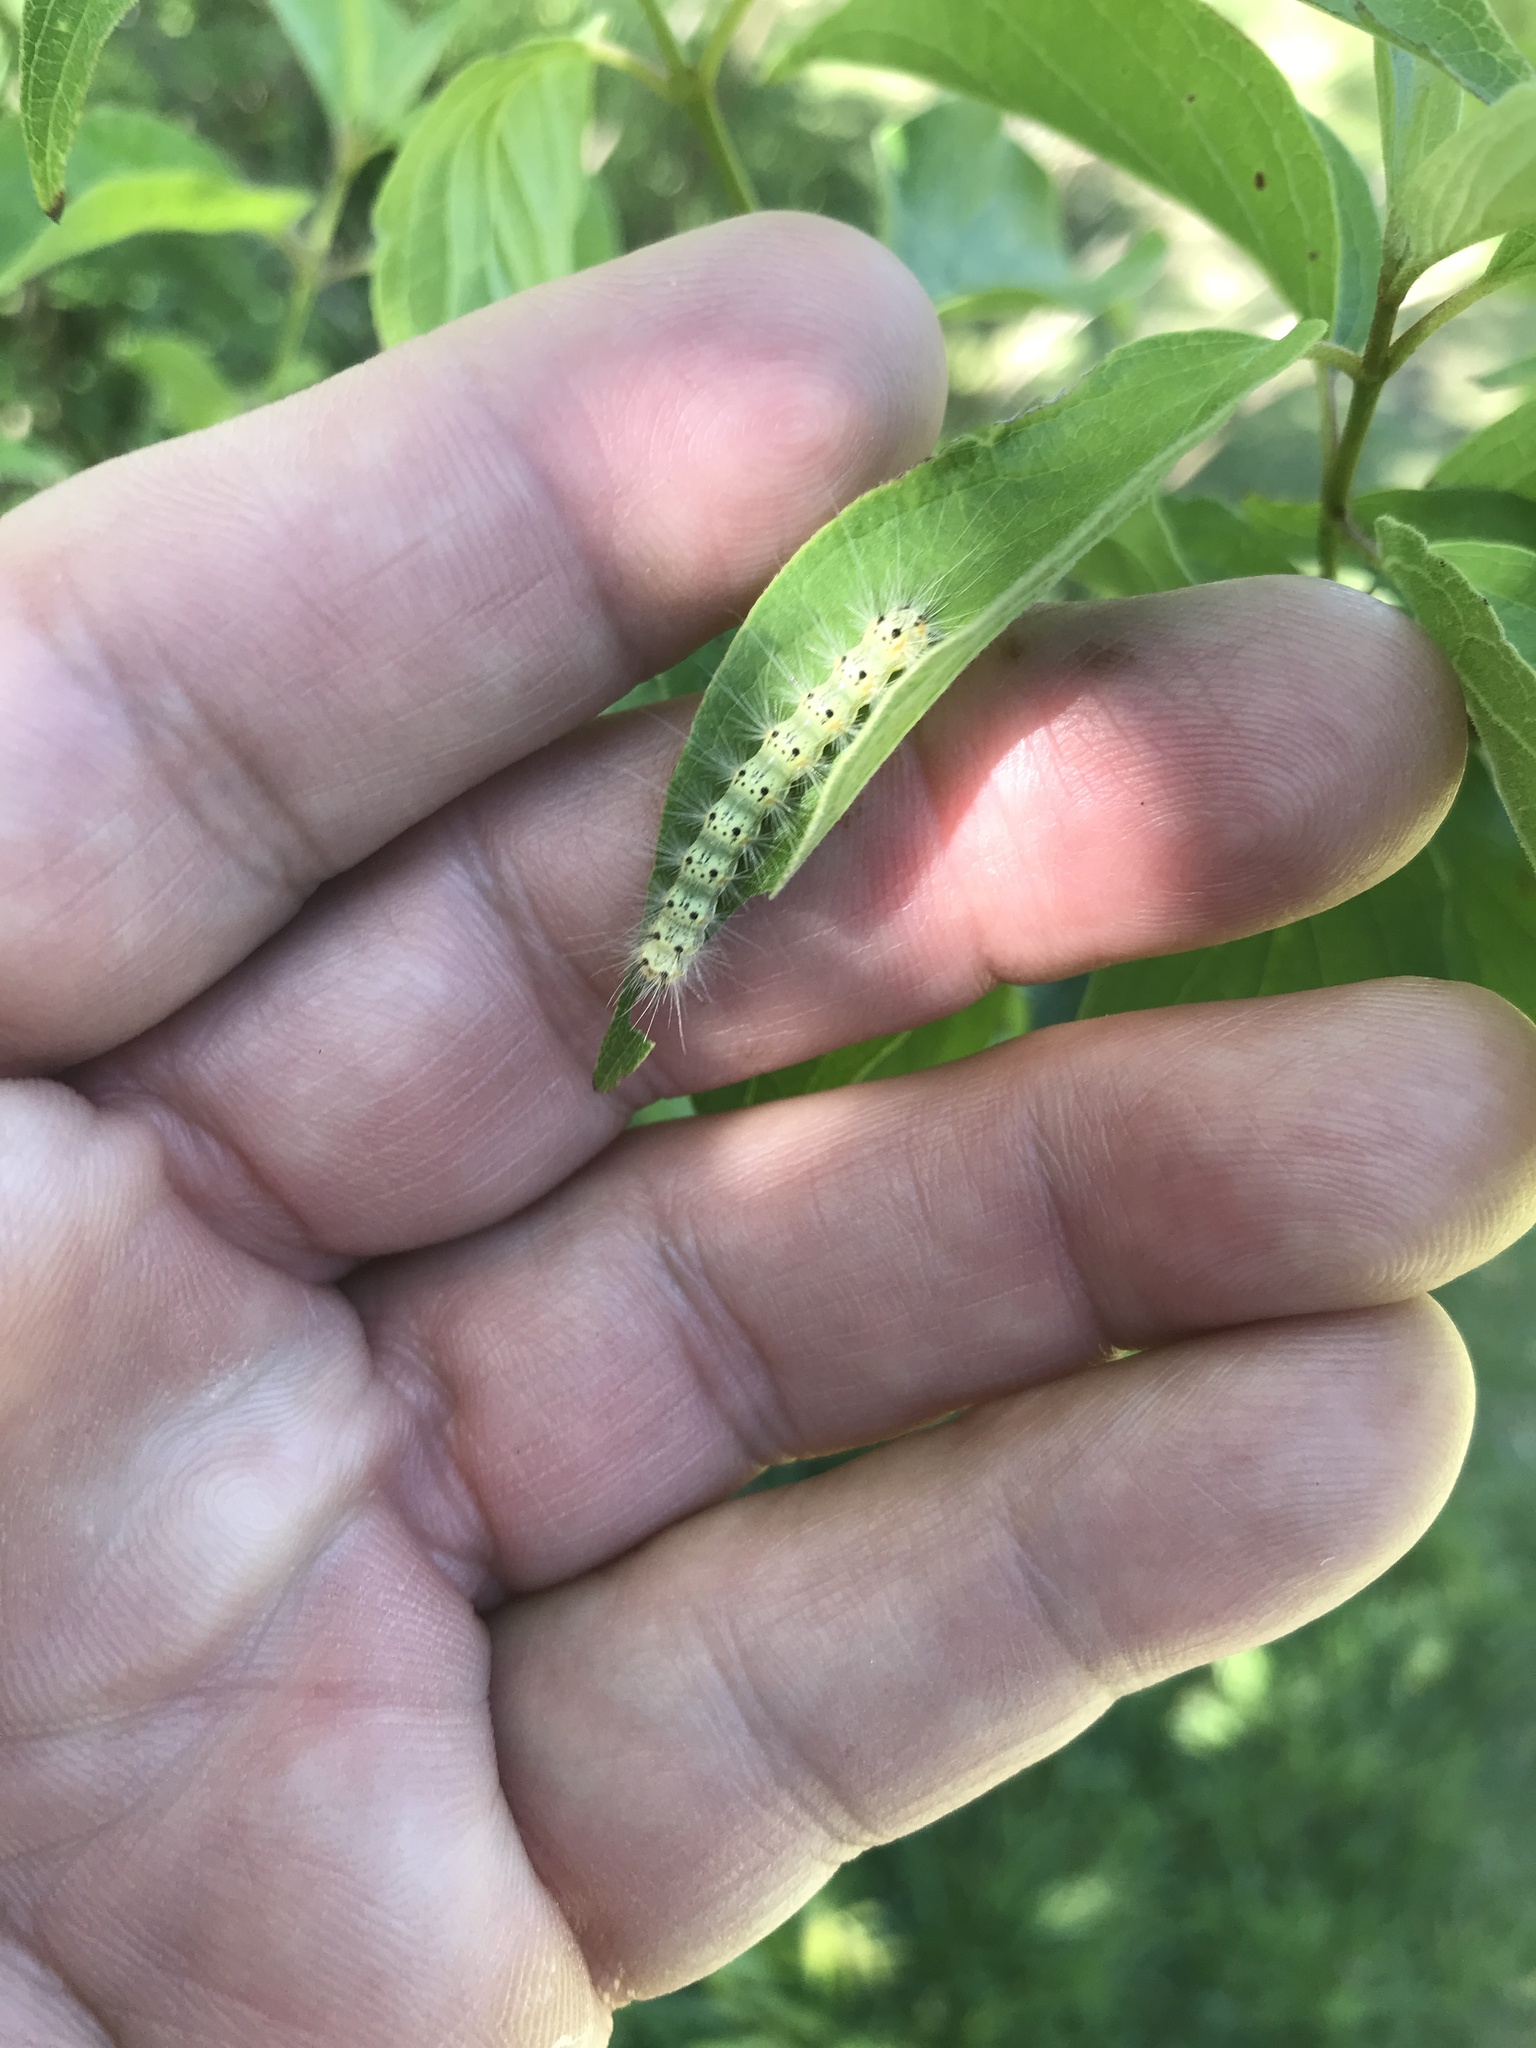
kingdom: Animalia
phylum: Arthropoda
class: Insecta
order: Lepidoptera
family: Erebidae
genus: Hyphantria
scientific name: Hyphantria cunea
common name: American white moth
